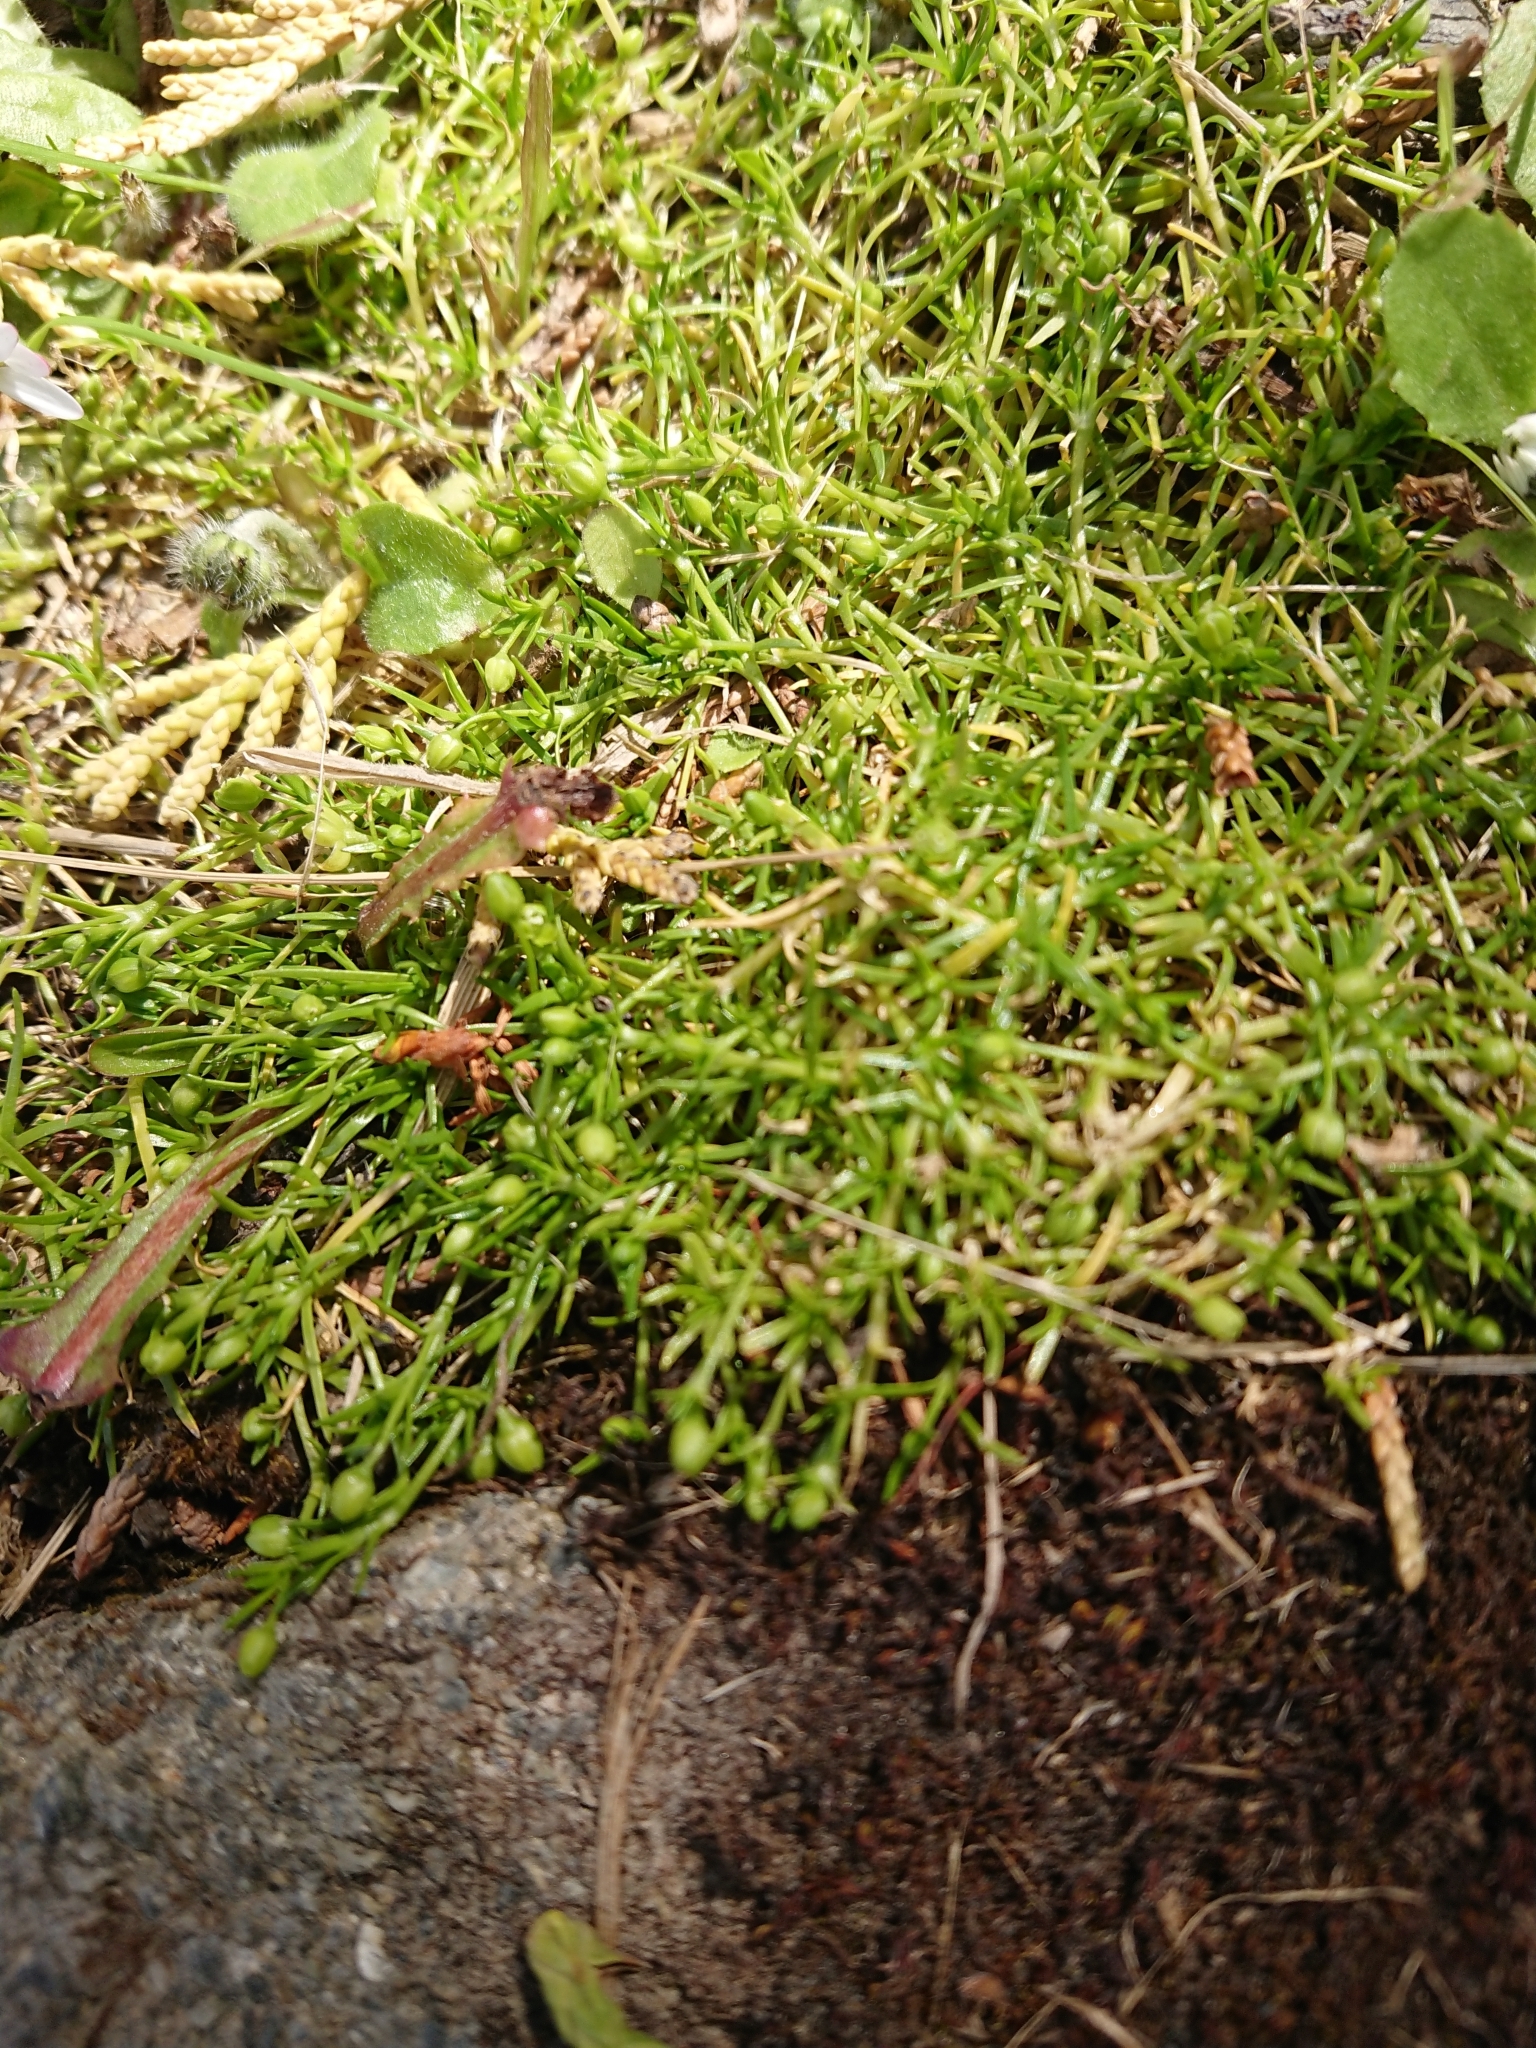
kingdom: Plantae
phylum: Tracheophyta
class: Magnoliopsida
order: Caryophyllales
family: Caryophyllaceae
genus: Sagina
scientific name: Sagina procumbens
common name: Procumbent pearlwort
